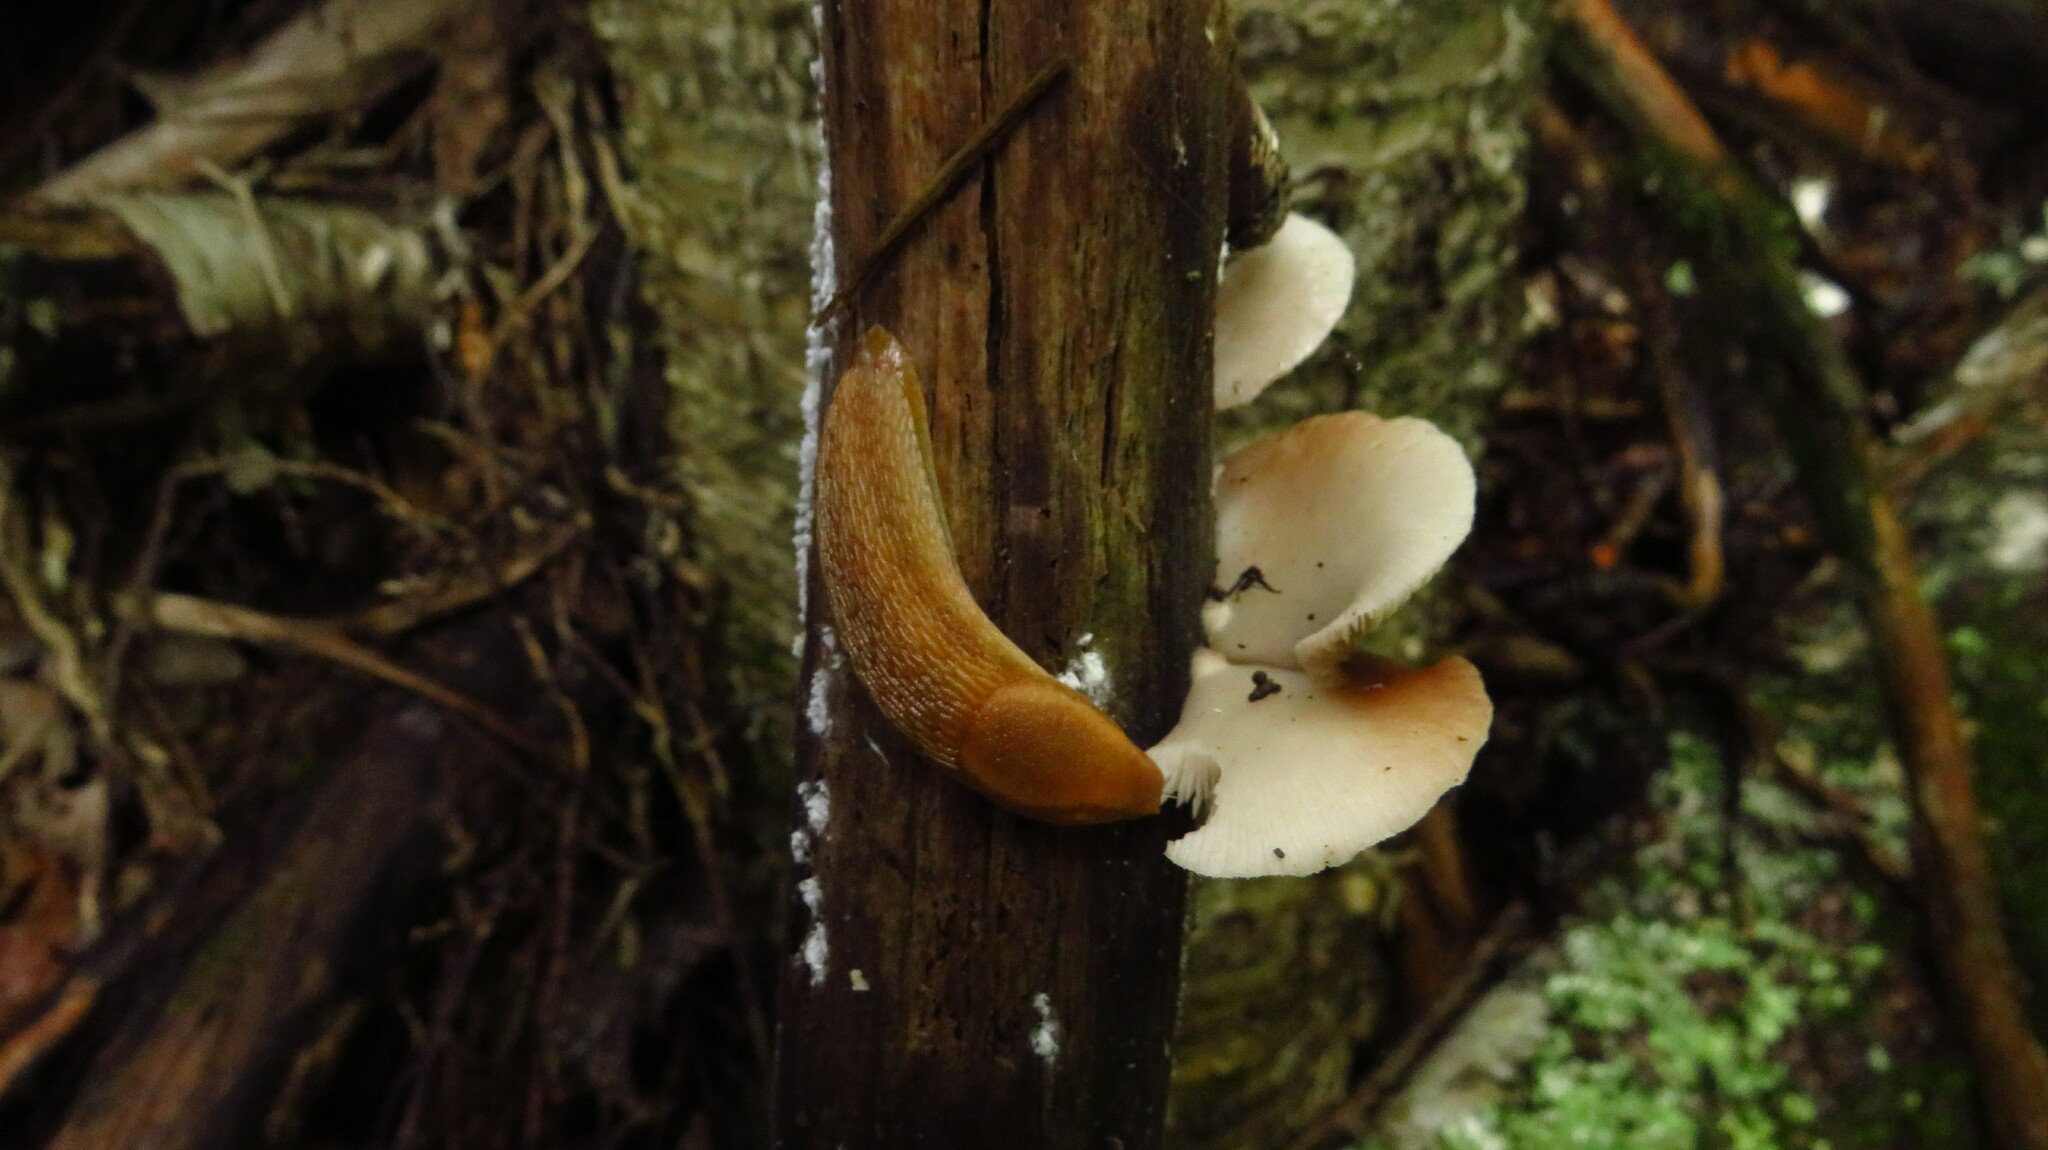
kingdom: Animalia
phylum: Mollusca
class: Gastropoda
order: Stylommatophora
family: Arionidae
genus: Arion
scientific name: Arion subfuscus
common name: Dusky arion
